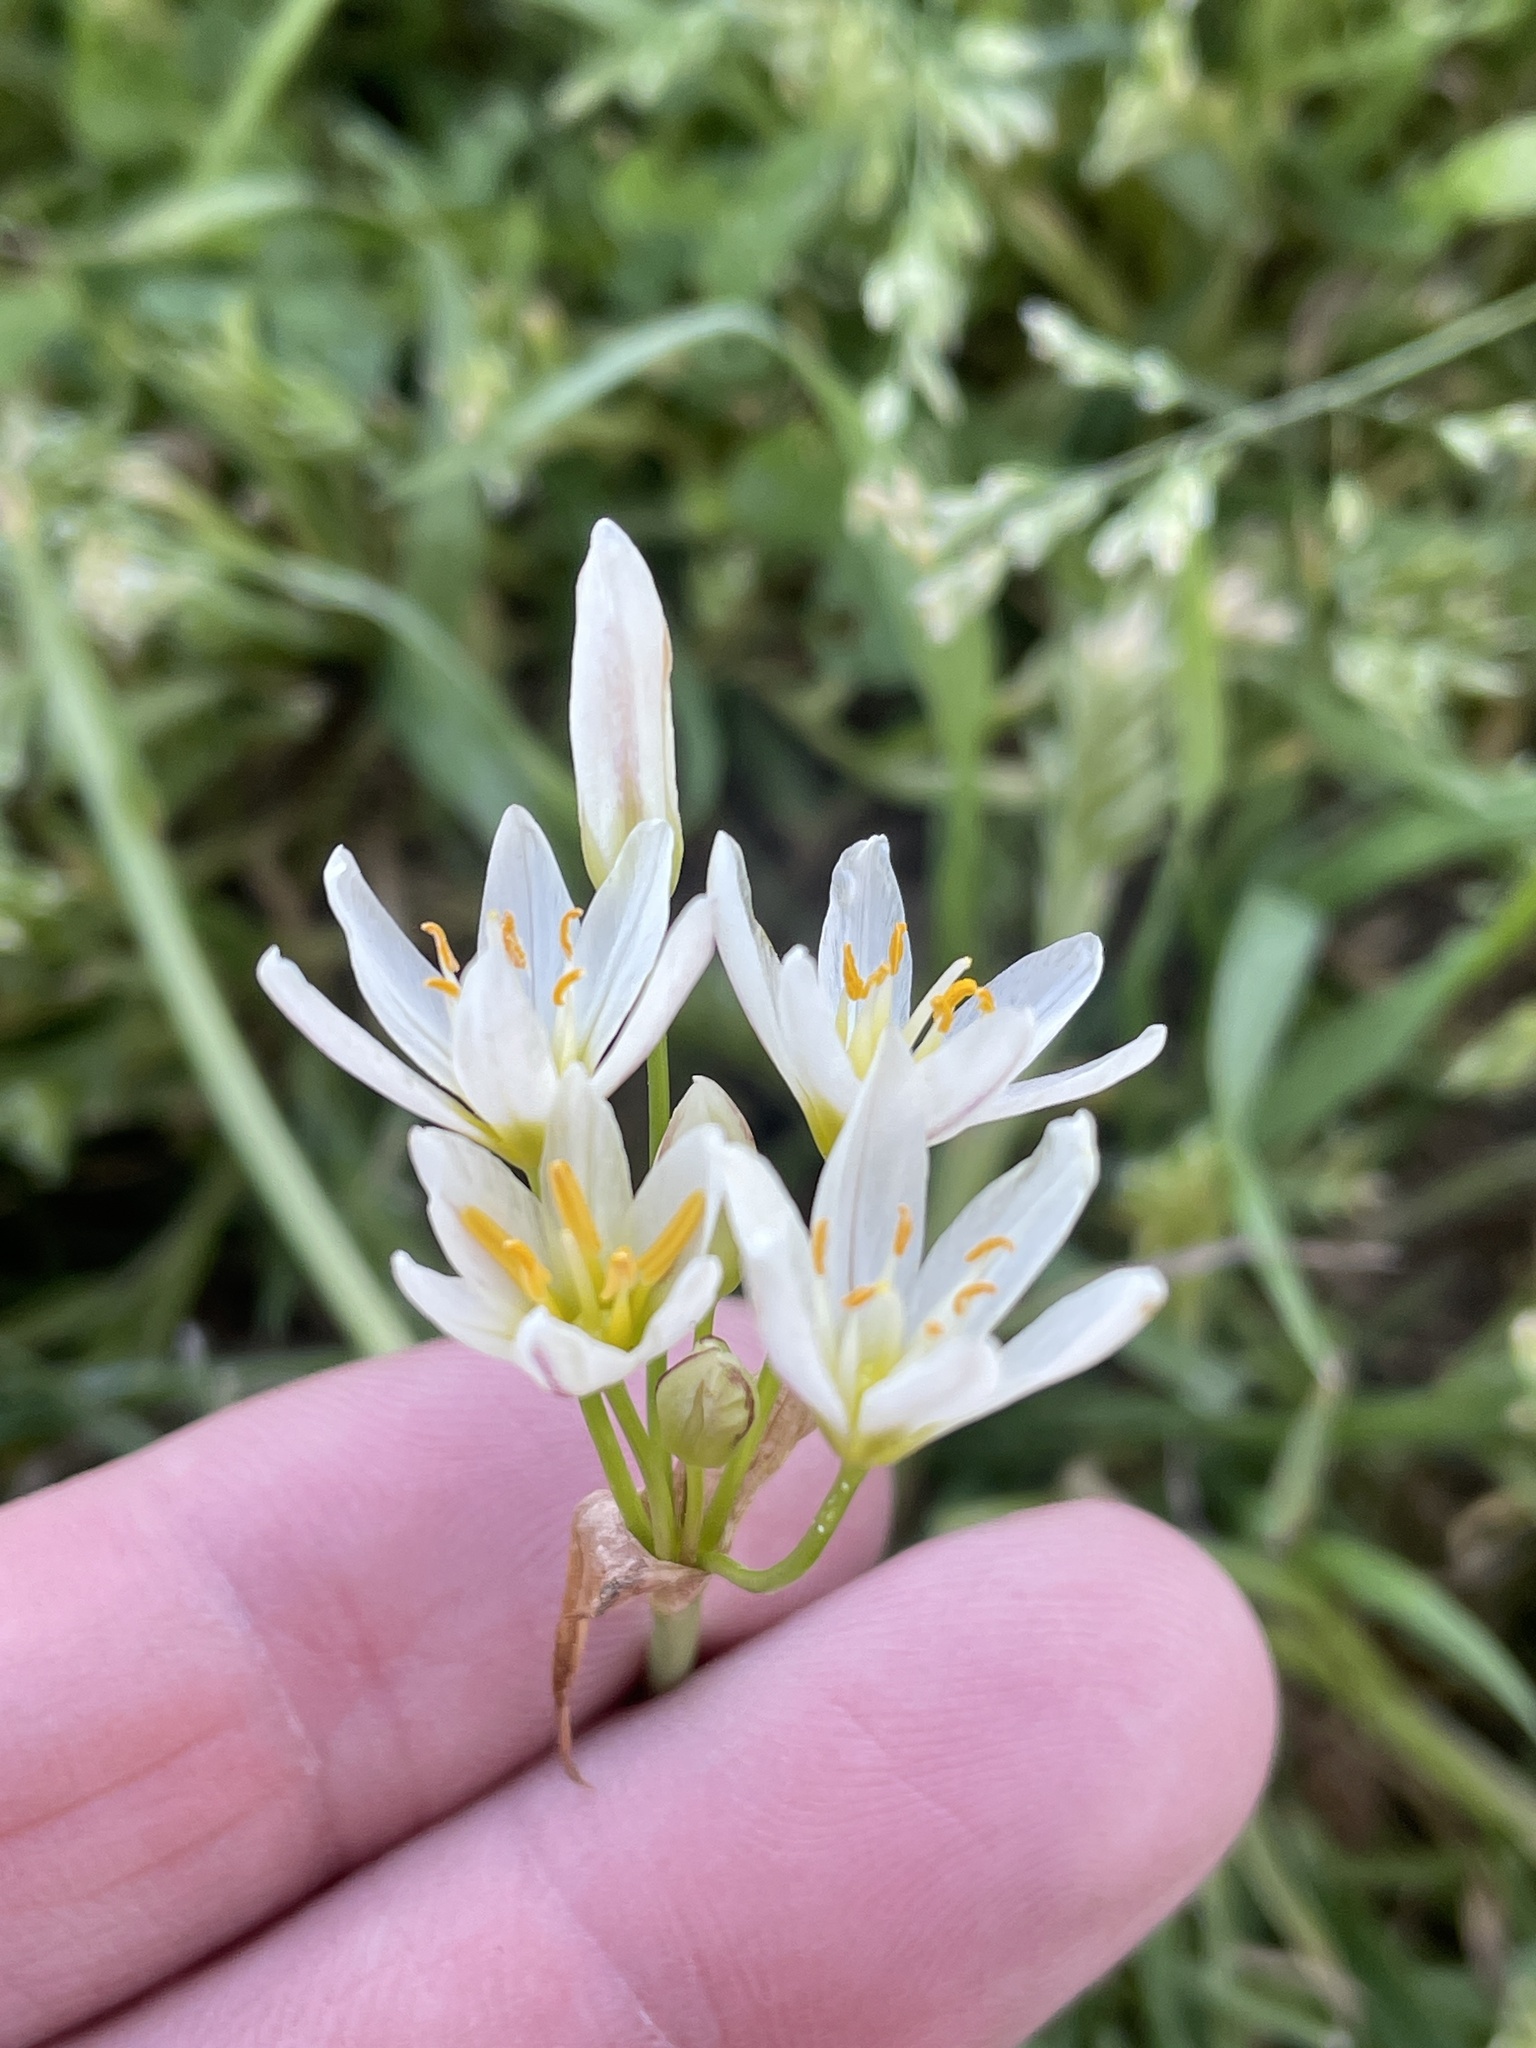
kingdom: Plantae
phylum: Tracheophyta
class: Liliopsida
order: Asparagales
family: Amaryllidaceae
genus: Nothoscordum
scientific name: Nothoscordum bivalve
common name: Crow-poison
